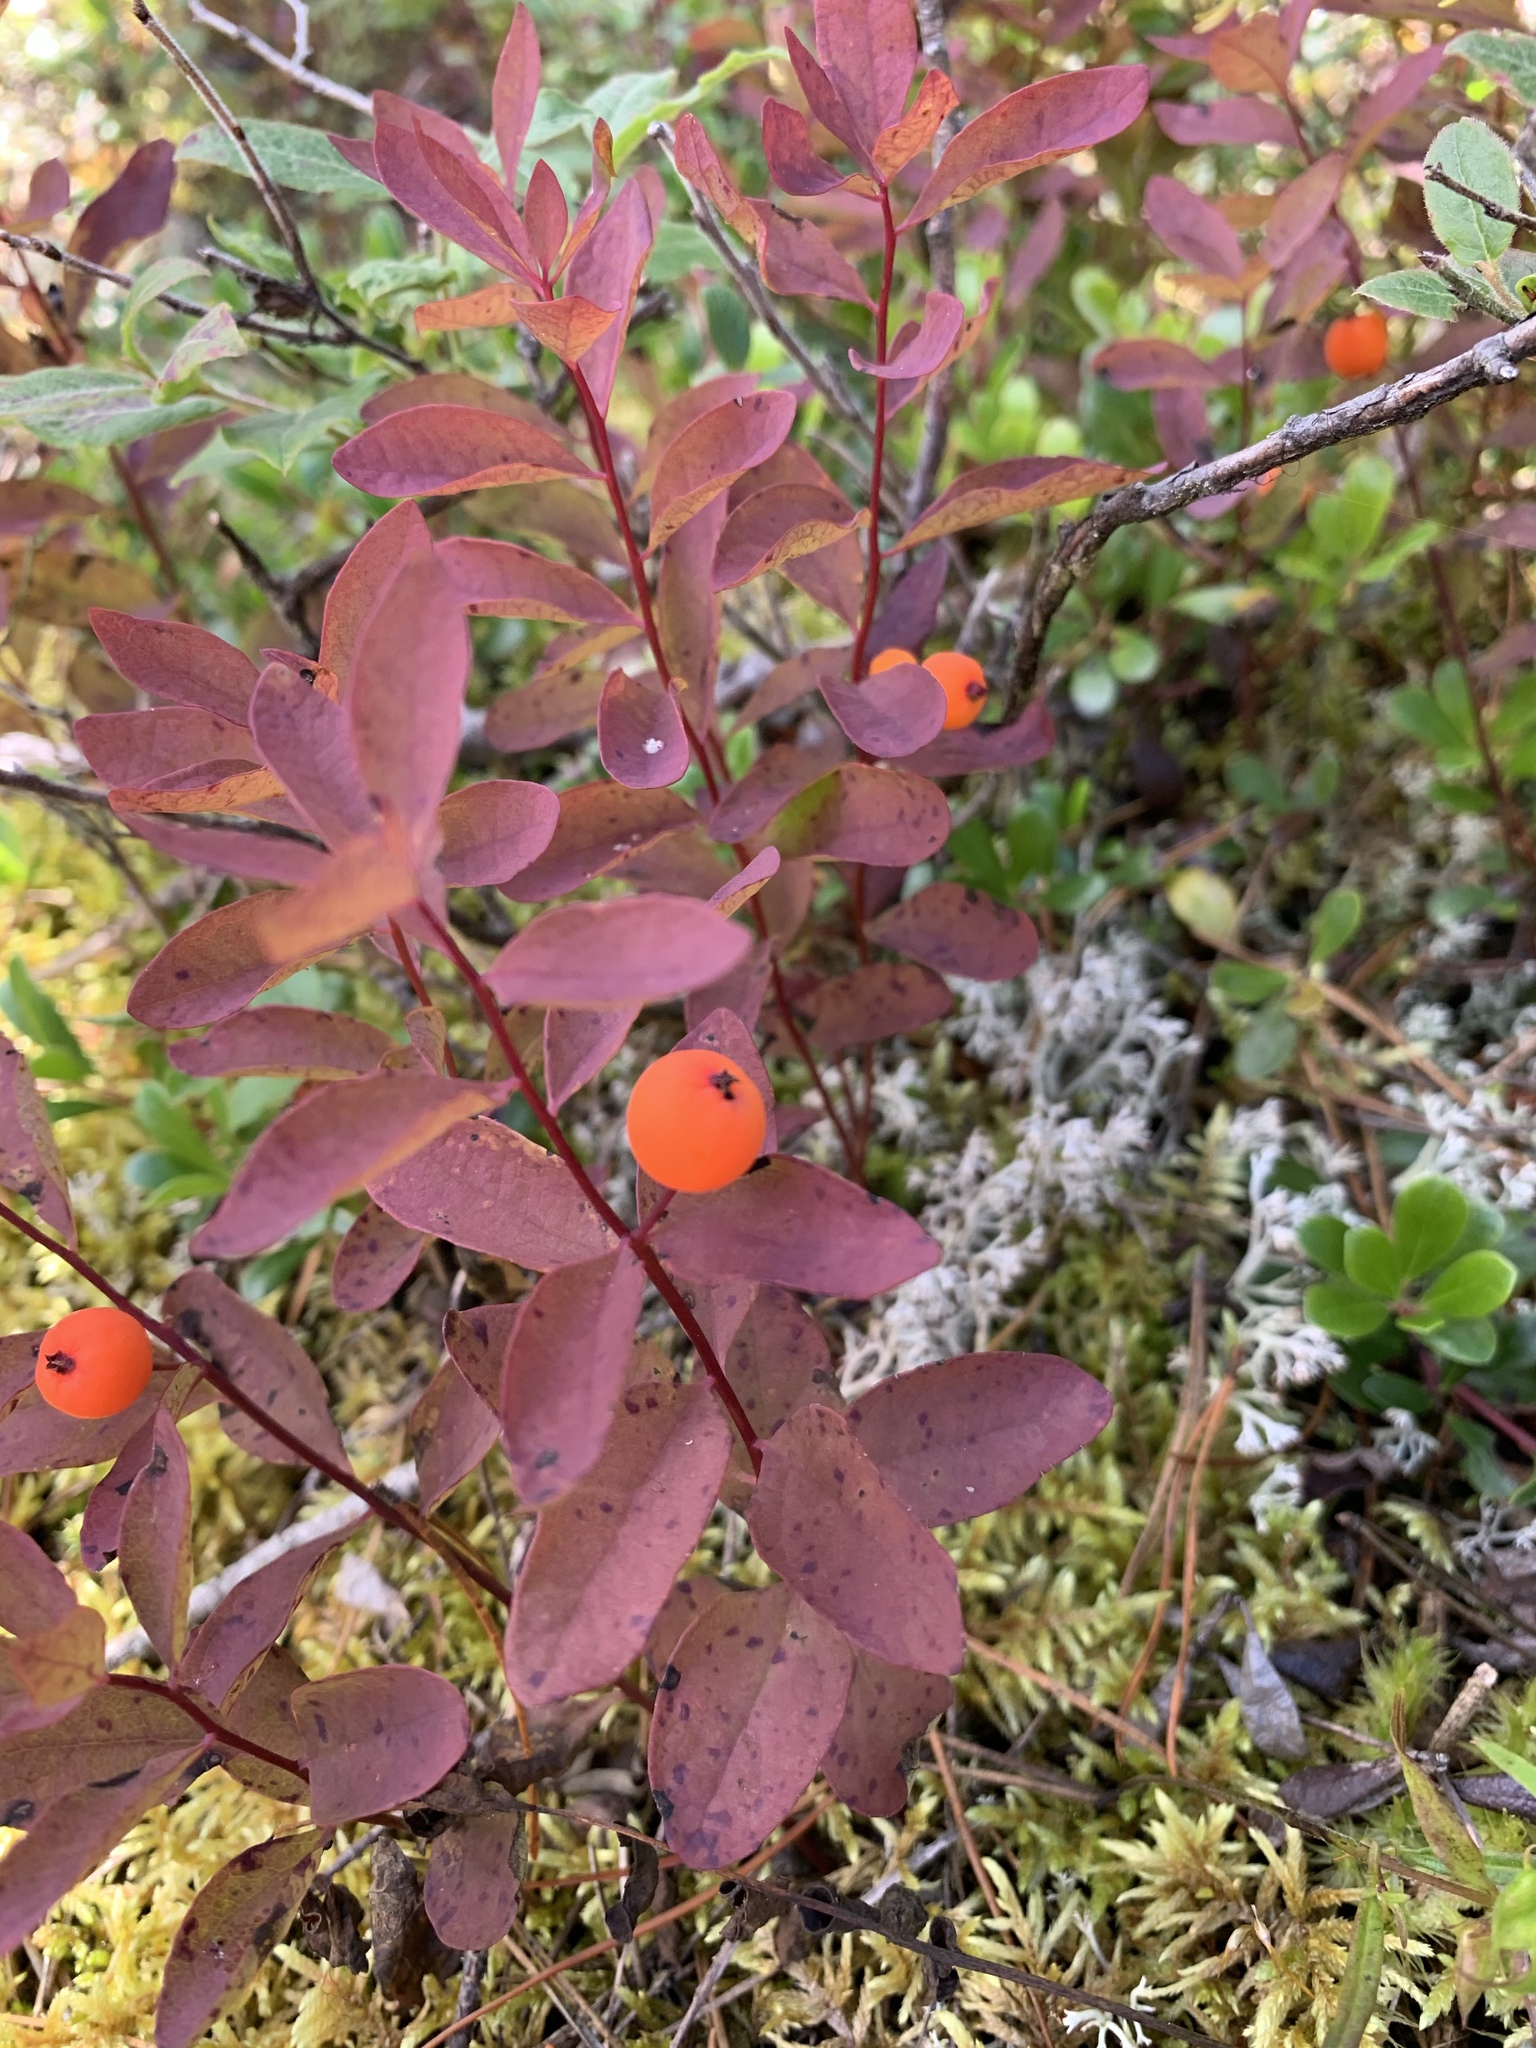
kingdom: Plantae
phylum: Tracheophyta
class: Magnoliopsida
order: Santalales
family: Comandraceae
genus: Geocaulon
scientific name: Geocaulon lividum
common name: Earthberry
